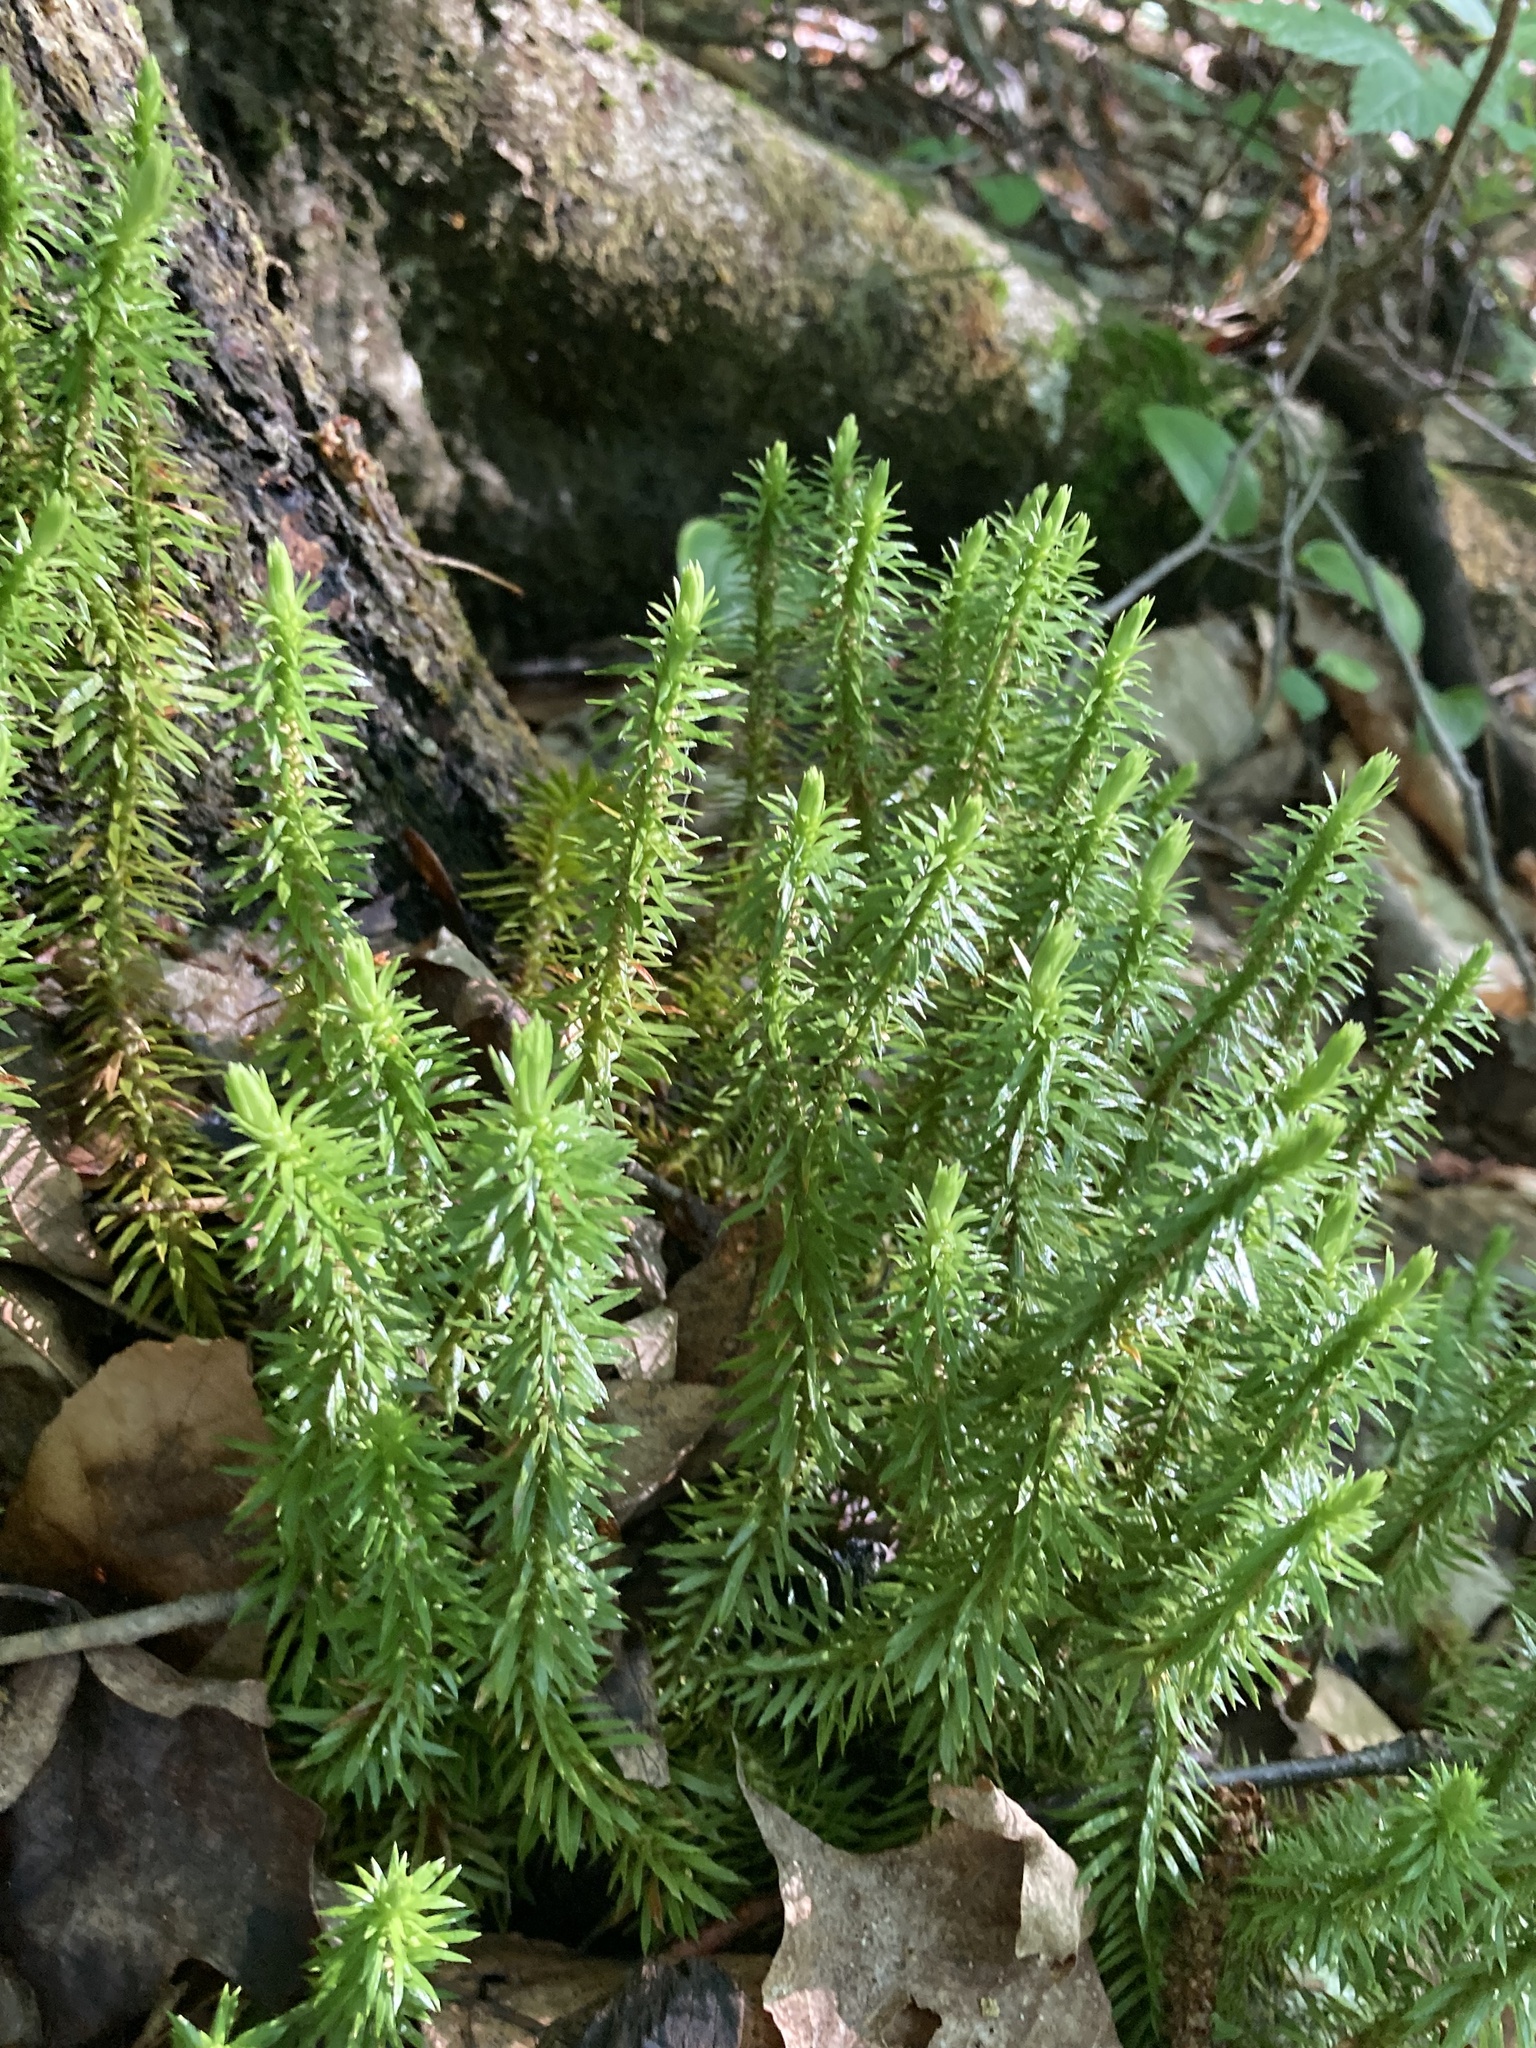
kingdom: Plantae
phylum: Tracheophyta
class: Lycopodiopsida
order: Lycopodiales
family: Lycopodiaceae
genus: Huperzia
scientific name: Huperzia lucidula
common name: Shining clubmoss
